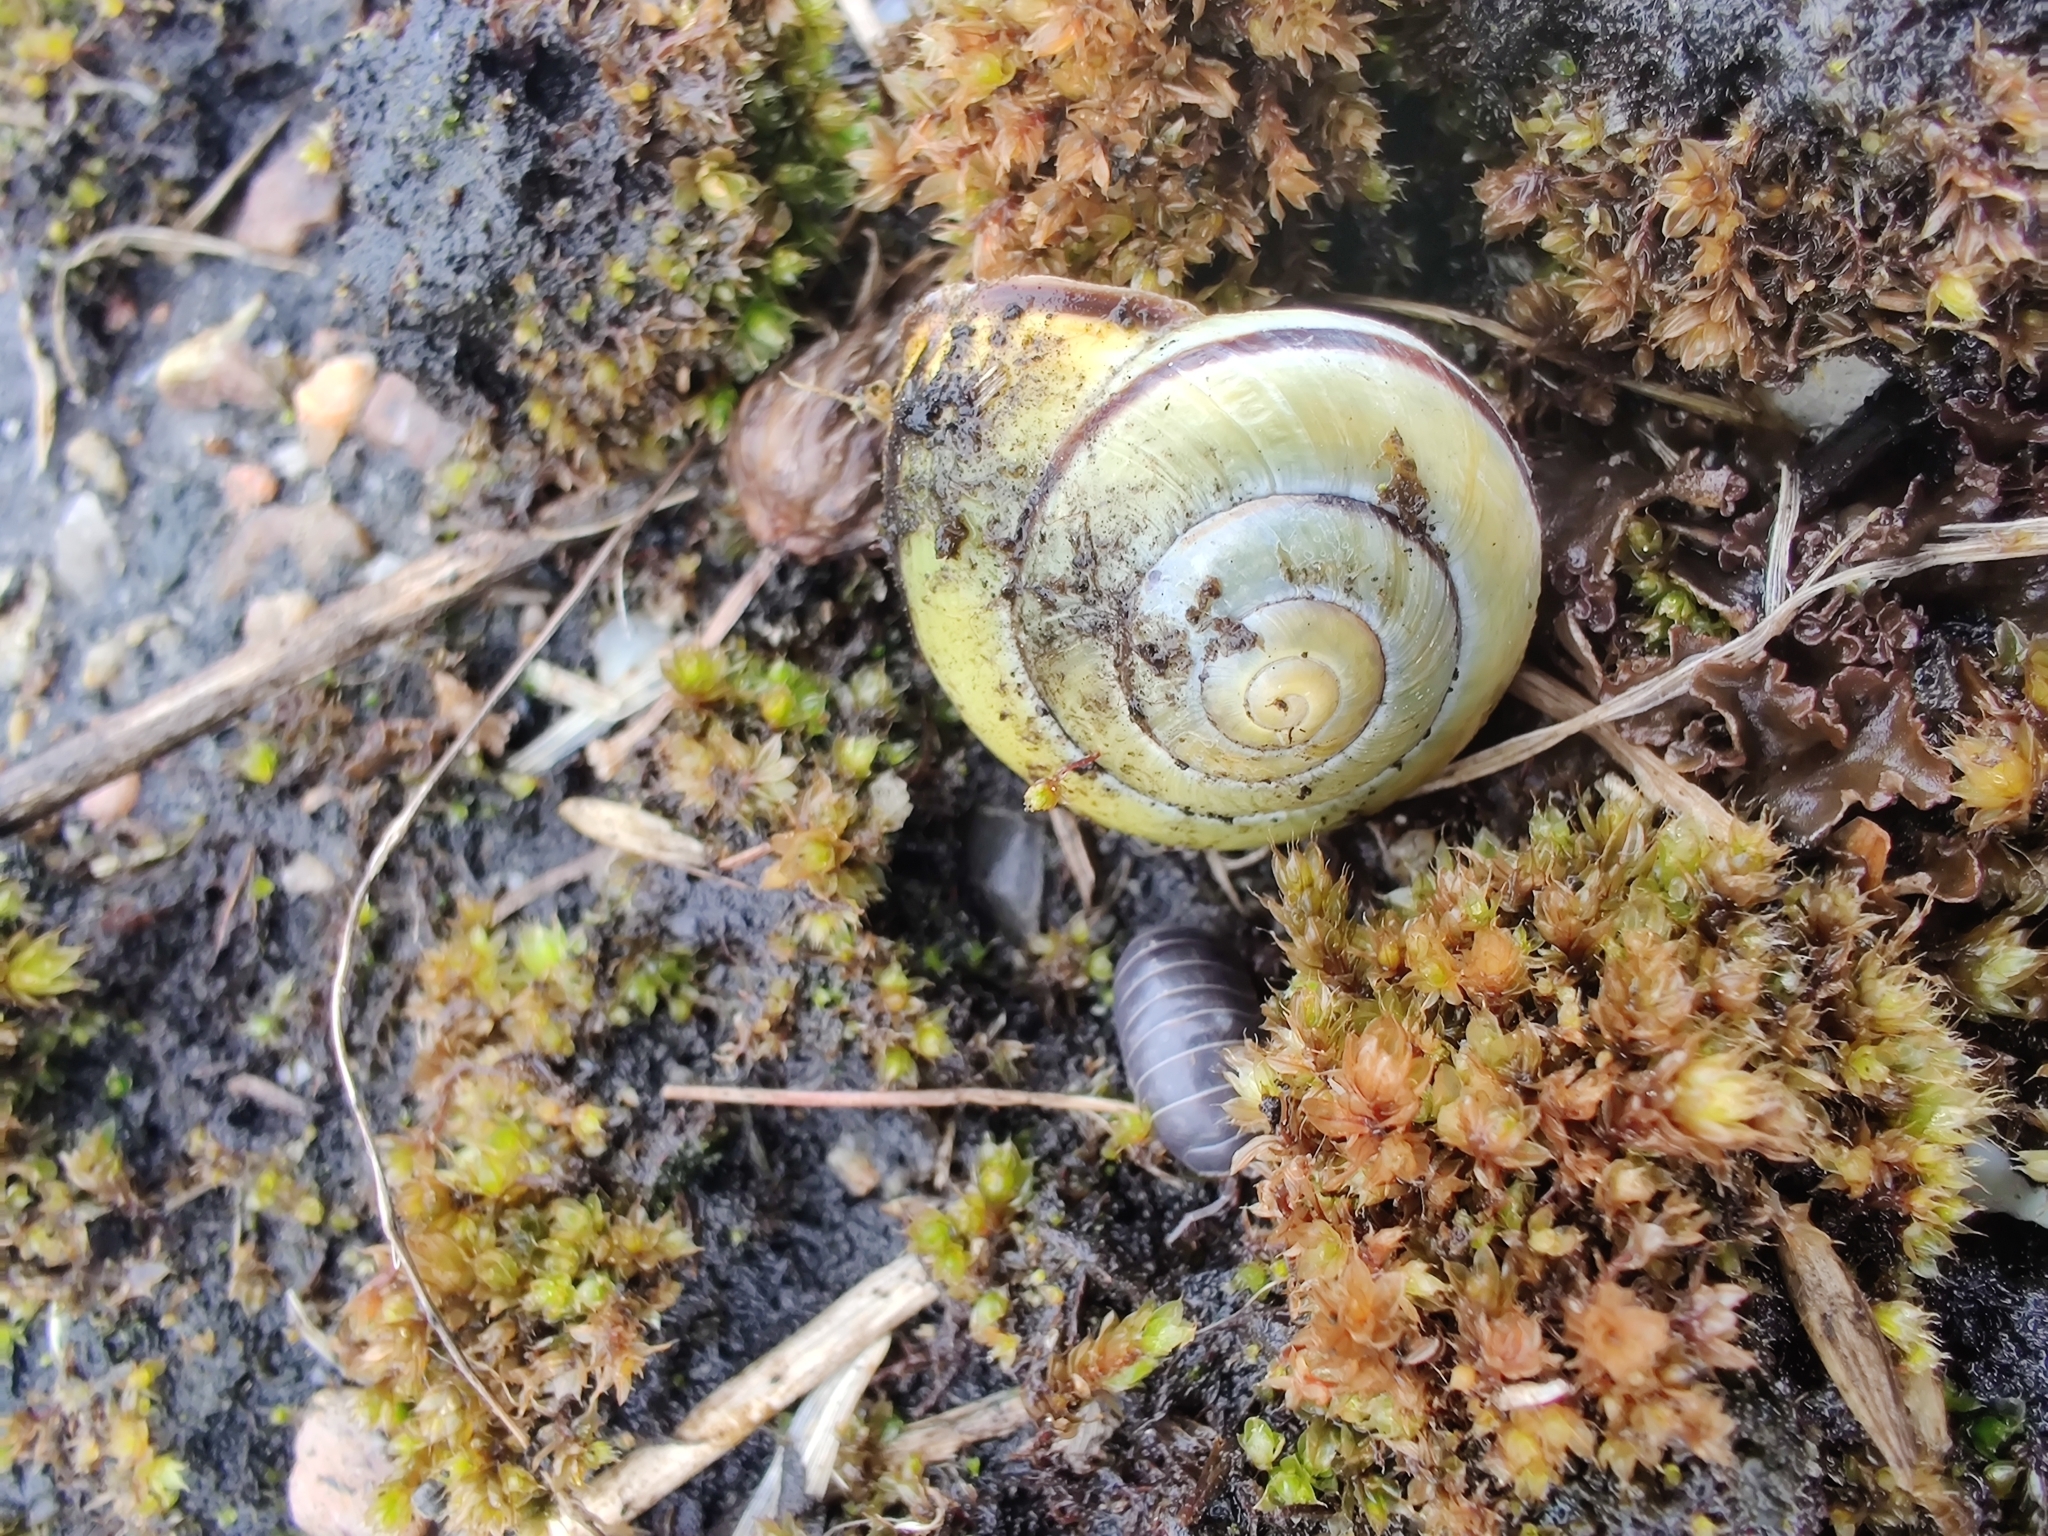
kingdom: Animalia
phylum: Mollusca
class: Gastropoda
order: Stylommatophora
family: Helicidae
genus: Cepaea
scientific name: Cepaea nemoralis
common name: Grovesnail
